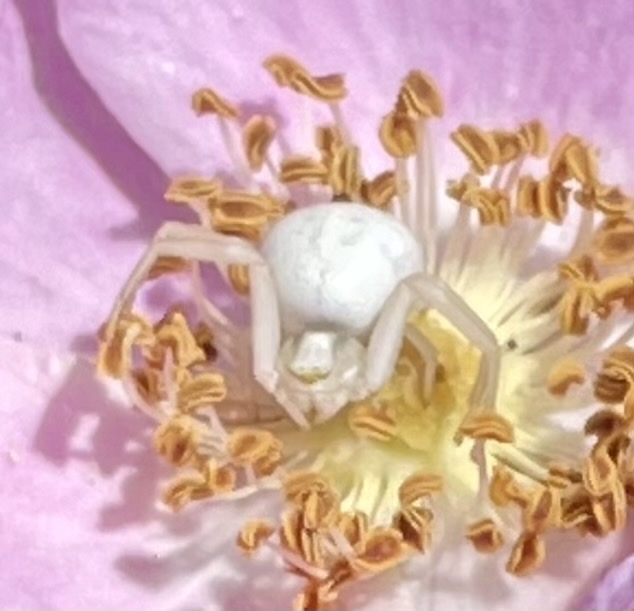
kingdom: Animalia
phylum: Arthropoda
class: Arachnida
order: Araneae
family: Thomisidae
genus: Misumena
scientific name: Misumena vatia
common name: Goldenrod crab spider
